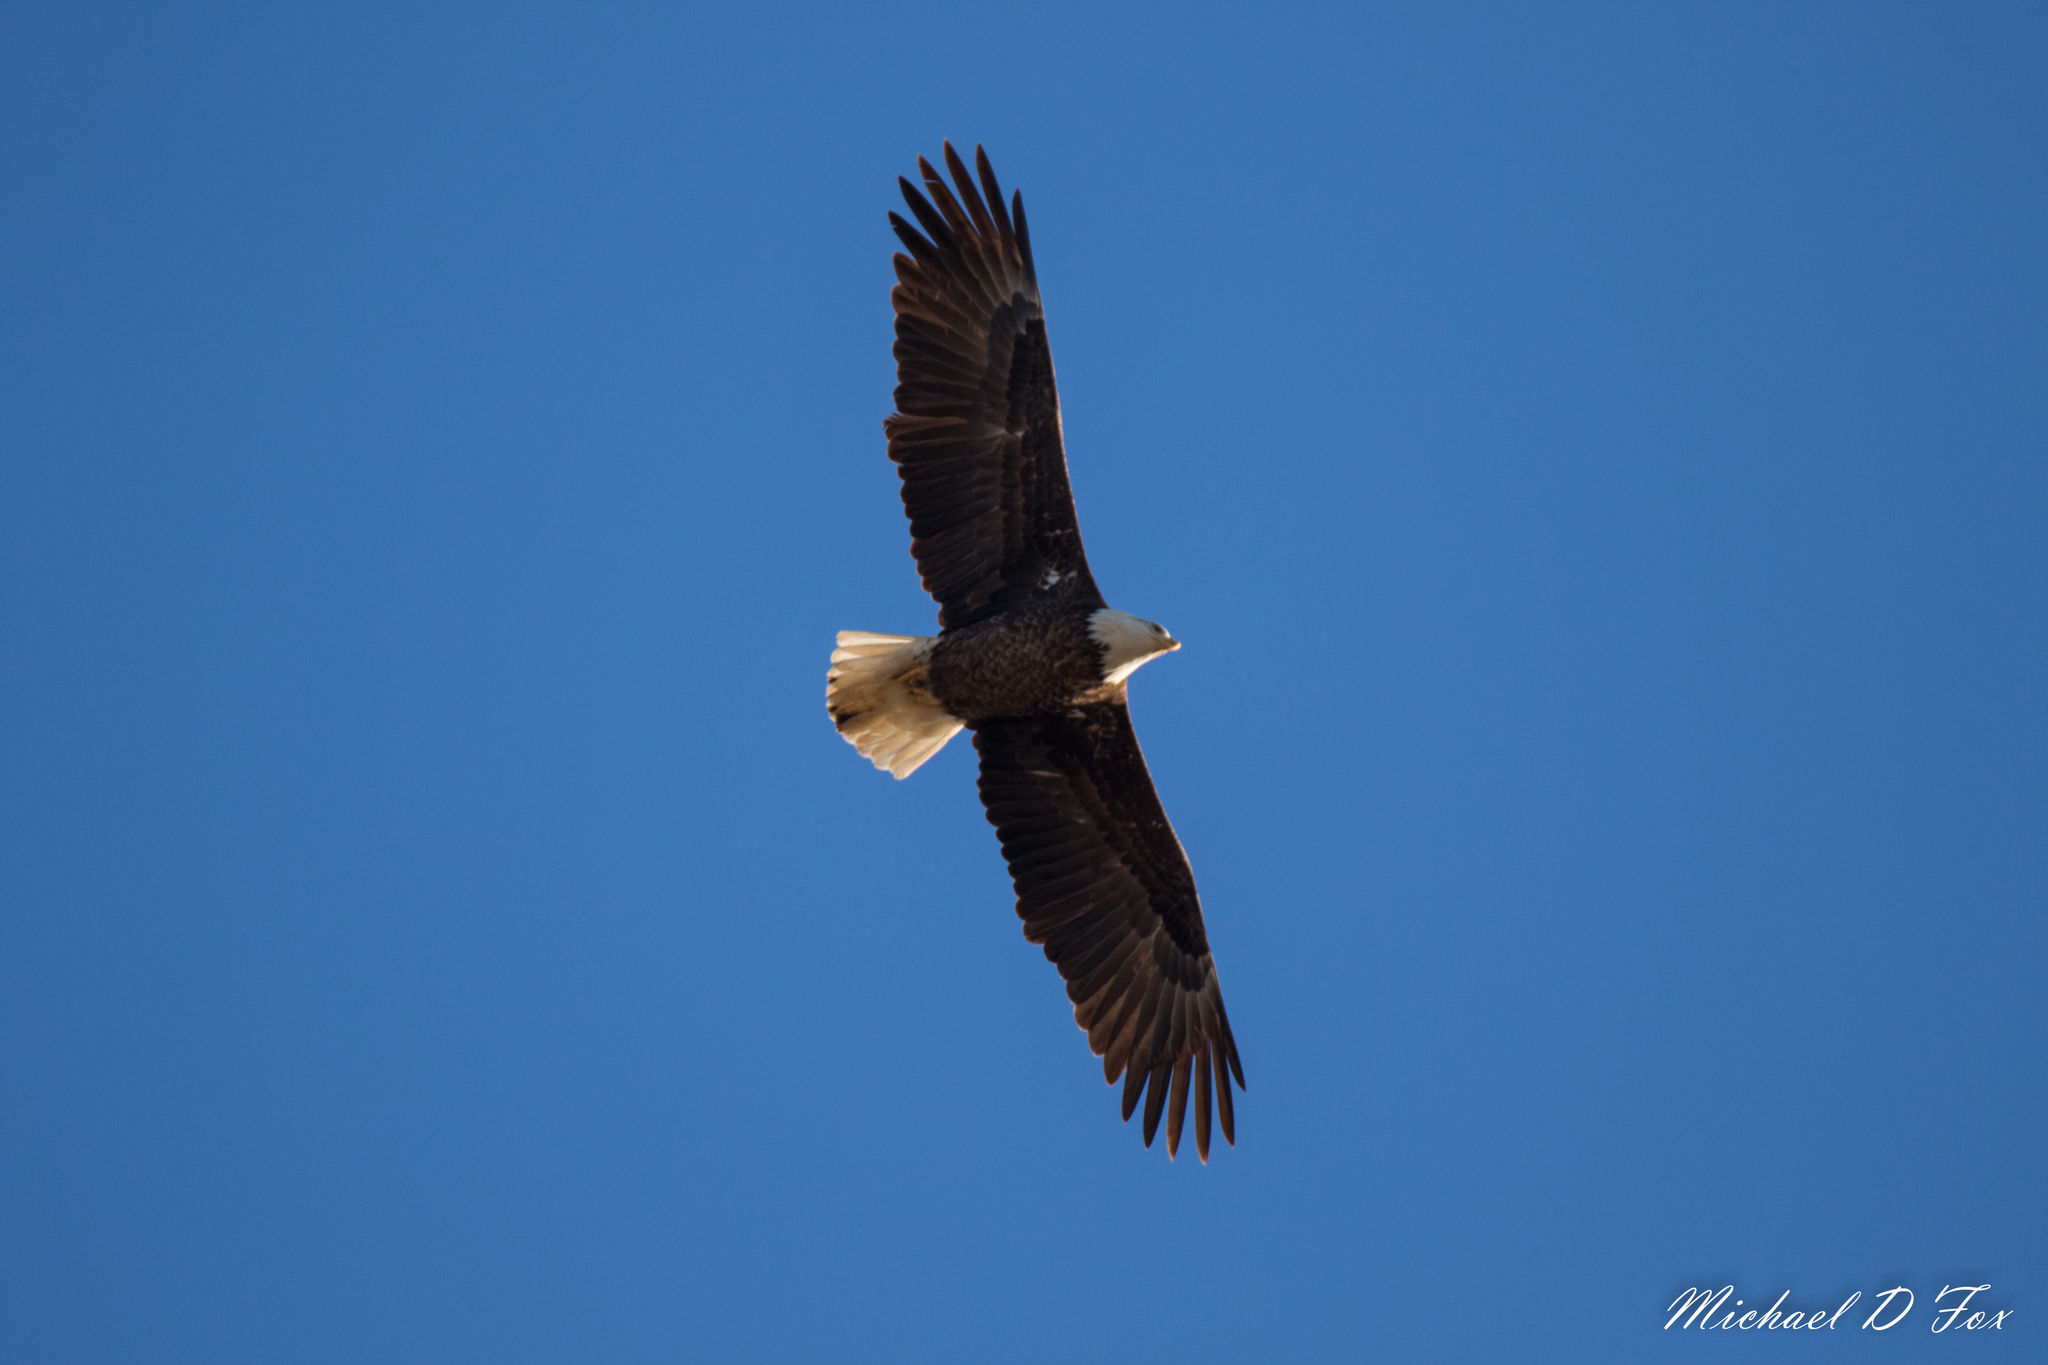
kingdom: Animalia
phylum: Chordata
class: Aves
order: Accipitriformes
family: Accipitridae
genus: Haliaeetus
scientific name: Haliaeetus leucocephalus
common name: Bald eagle
